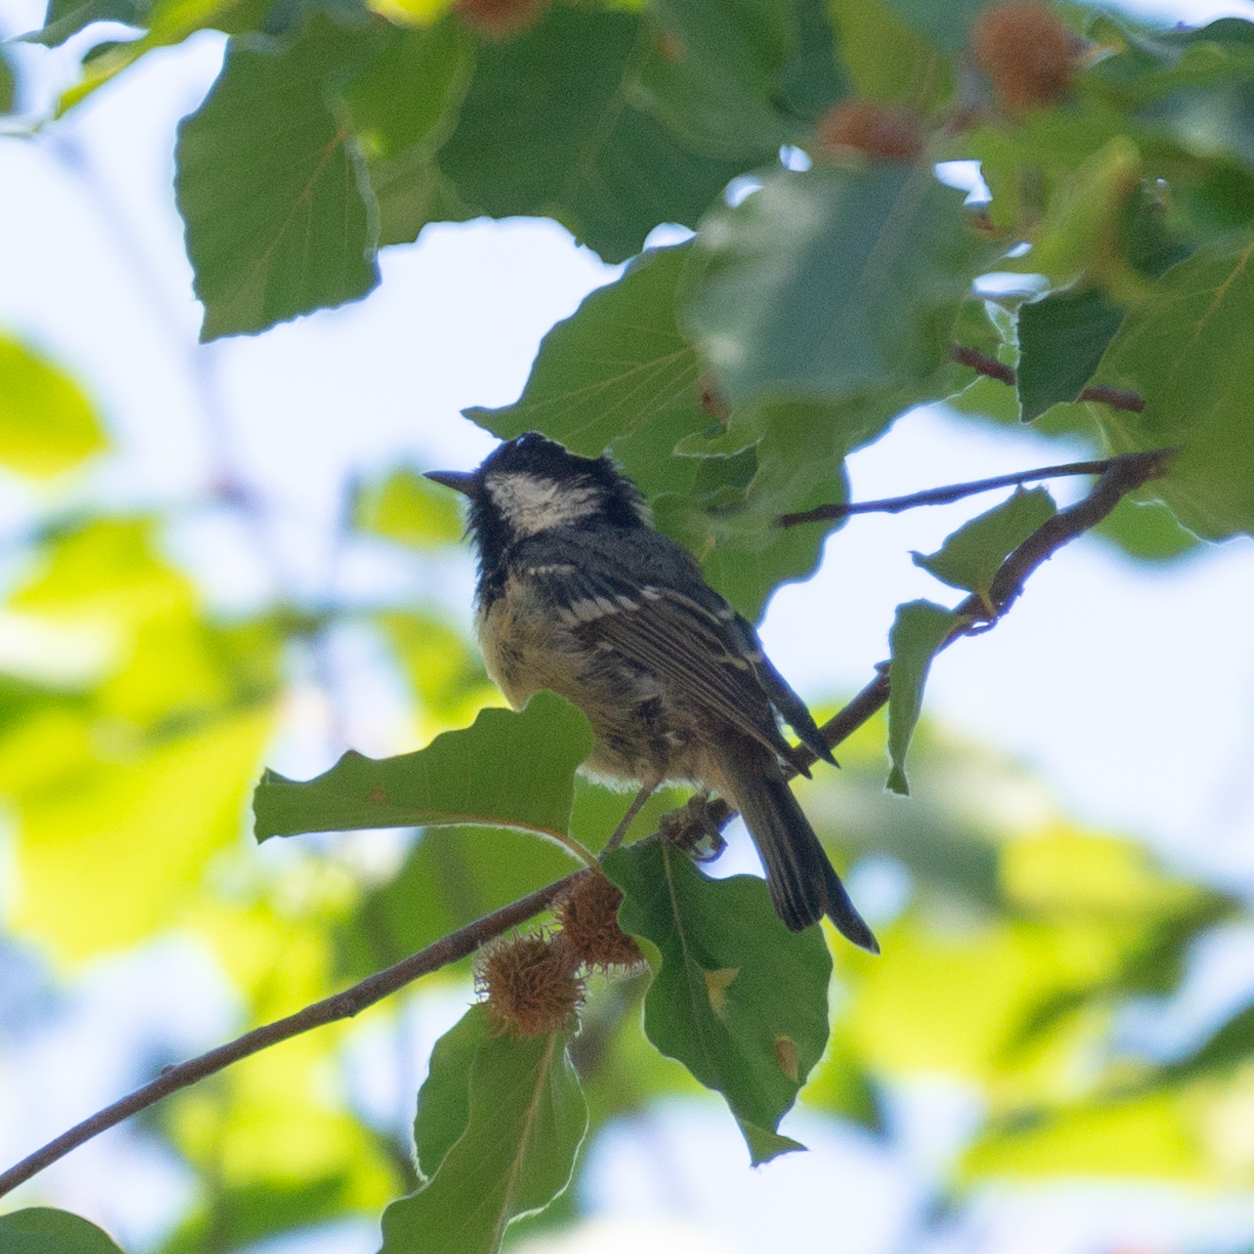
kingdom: Animalia
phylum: Chordata
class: Aves
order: Passeriformes
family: Paridae
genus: Periparus
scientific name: Periparus ater
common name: Coal tit
